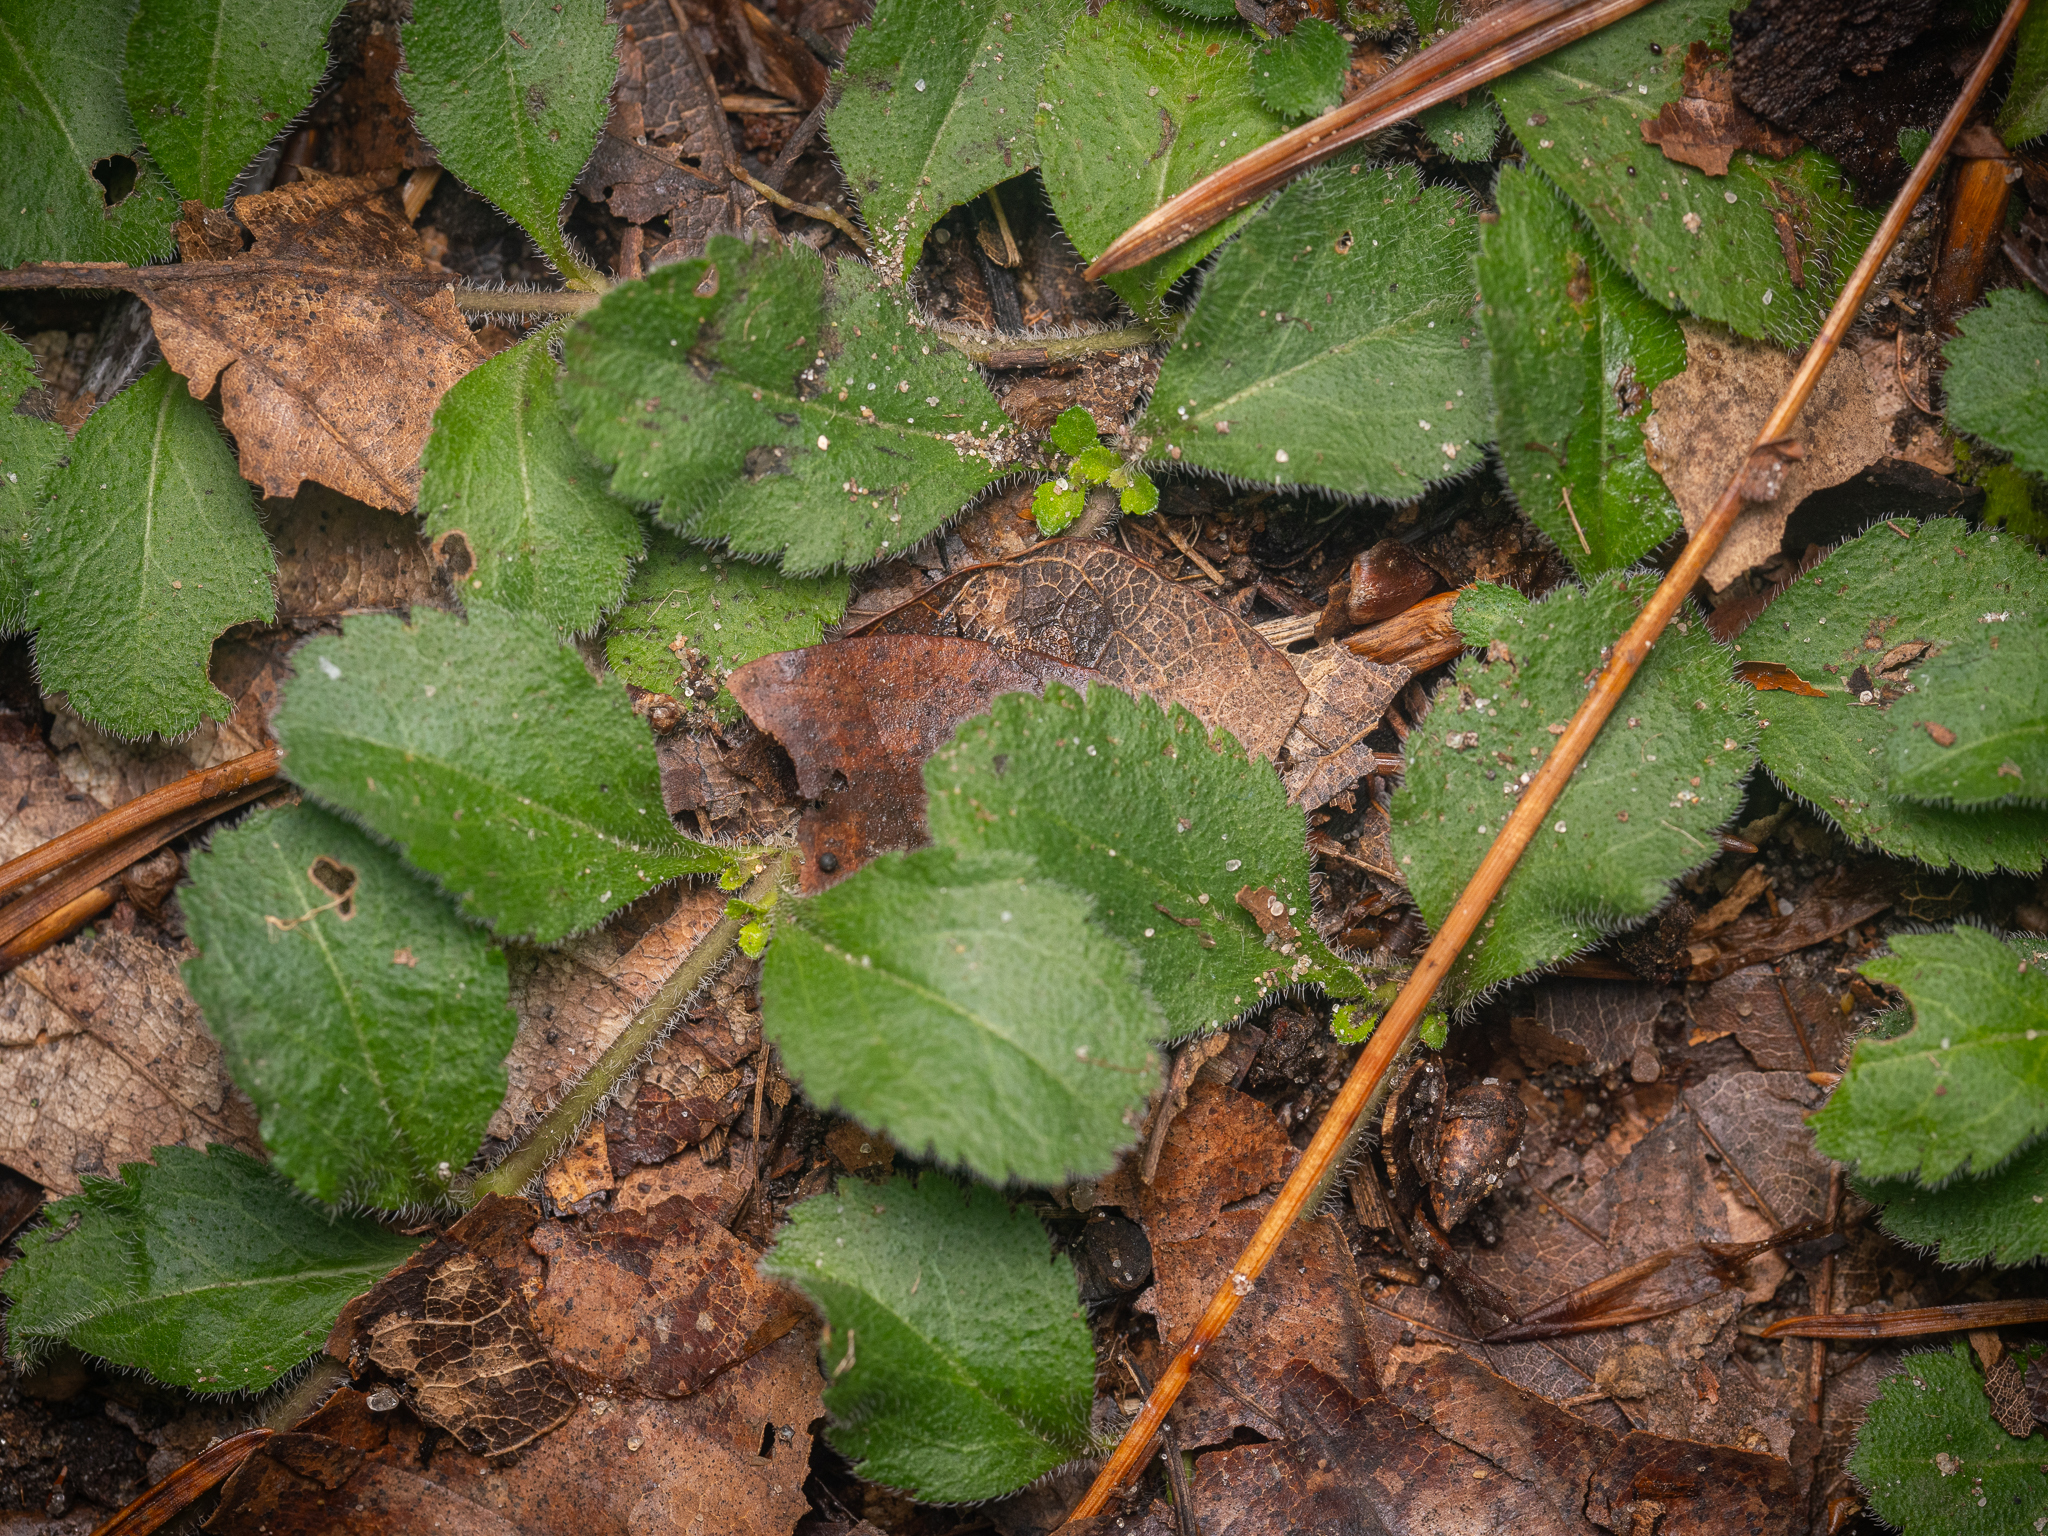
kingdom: Plantae
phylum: Tracheophyta
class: Magnoliopsida
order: Lamiales
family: Plantaginaceae
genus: Veronica
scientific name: Veronica officinalis
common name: Common speedwell
